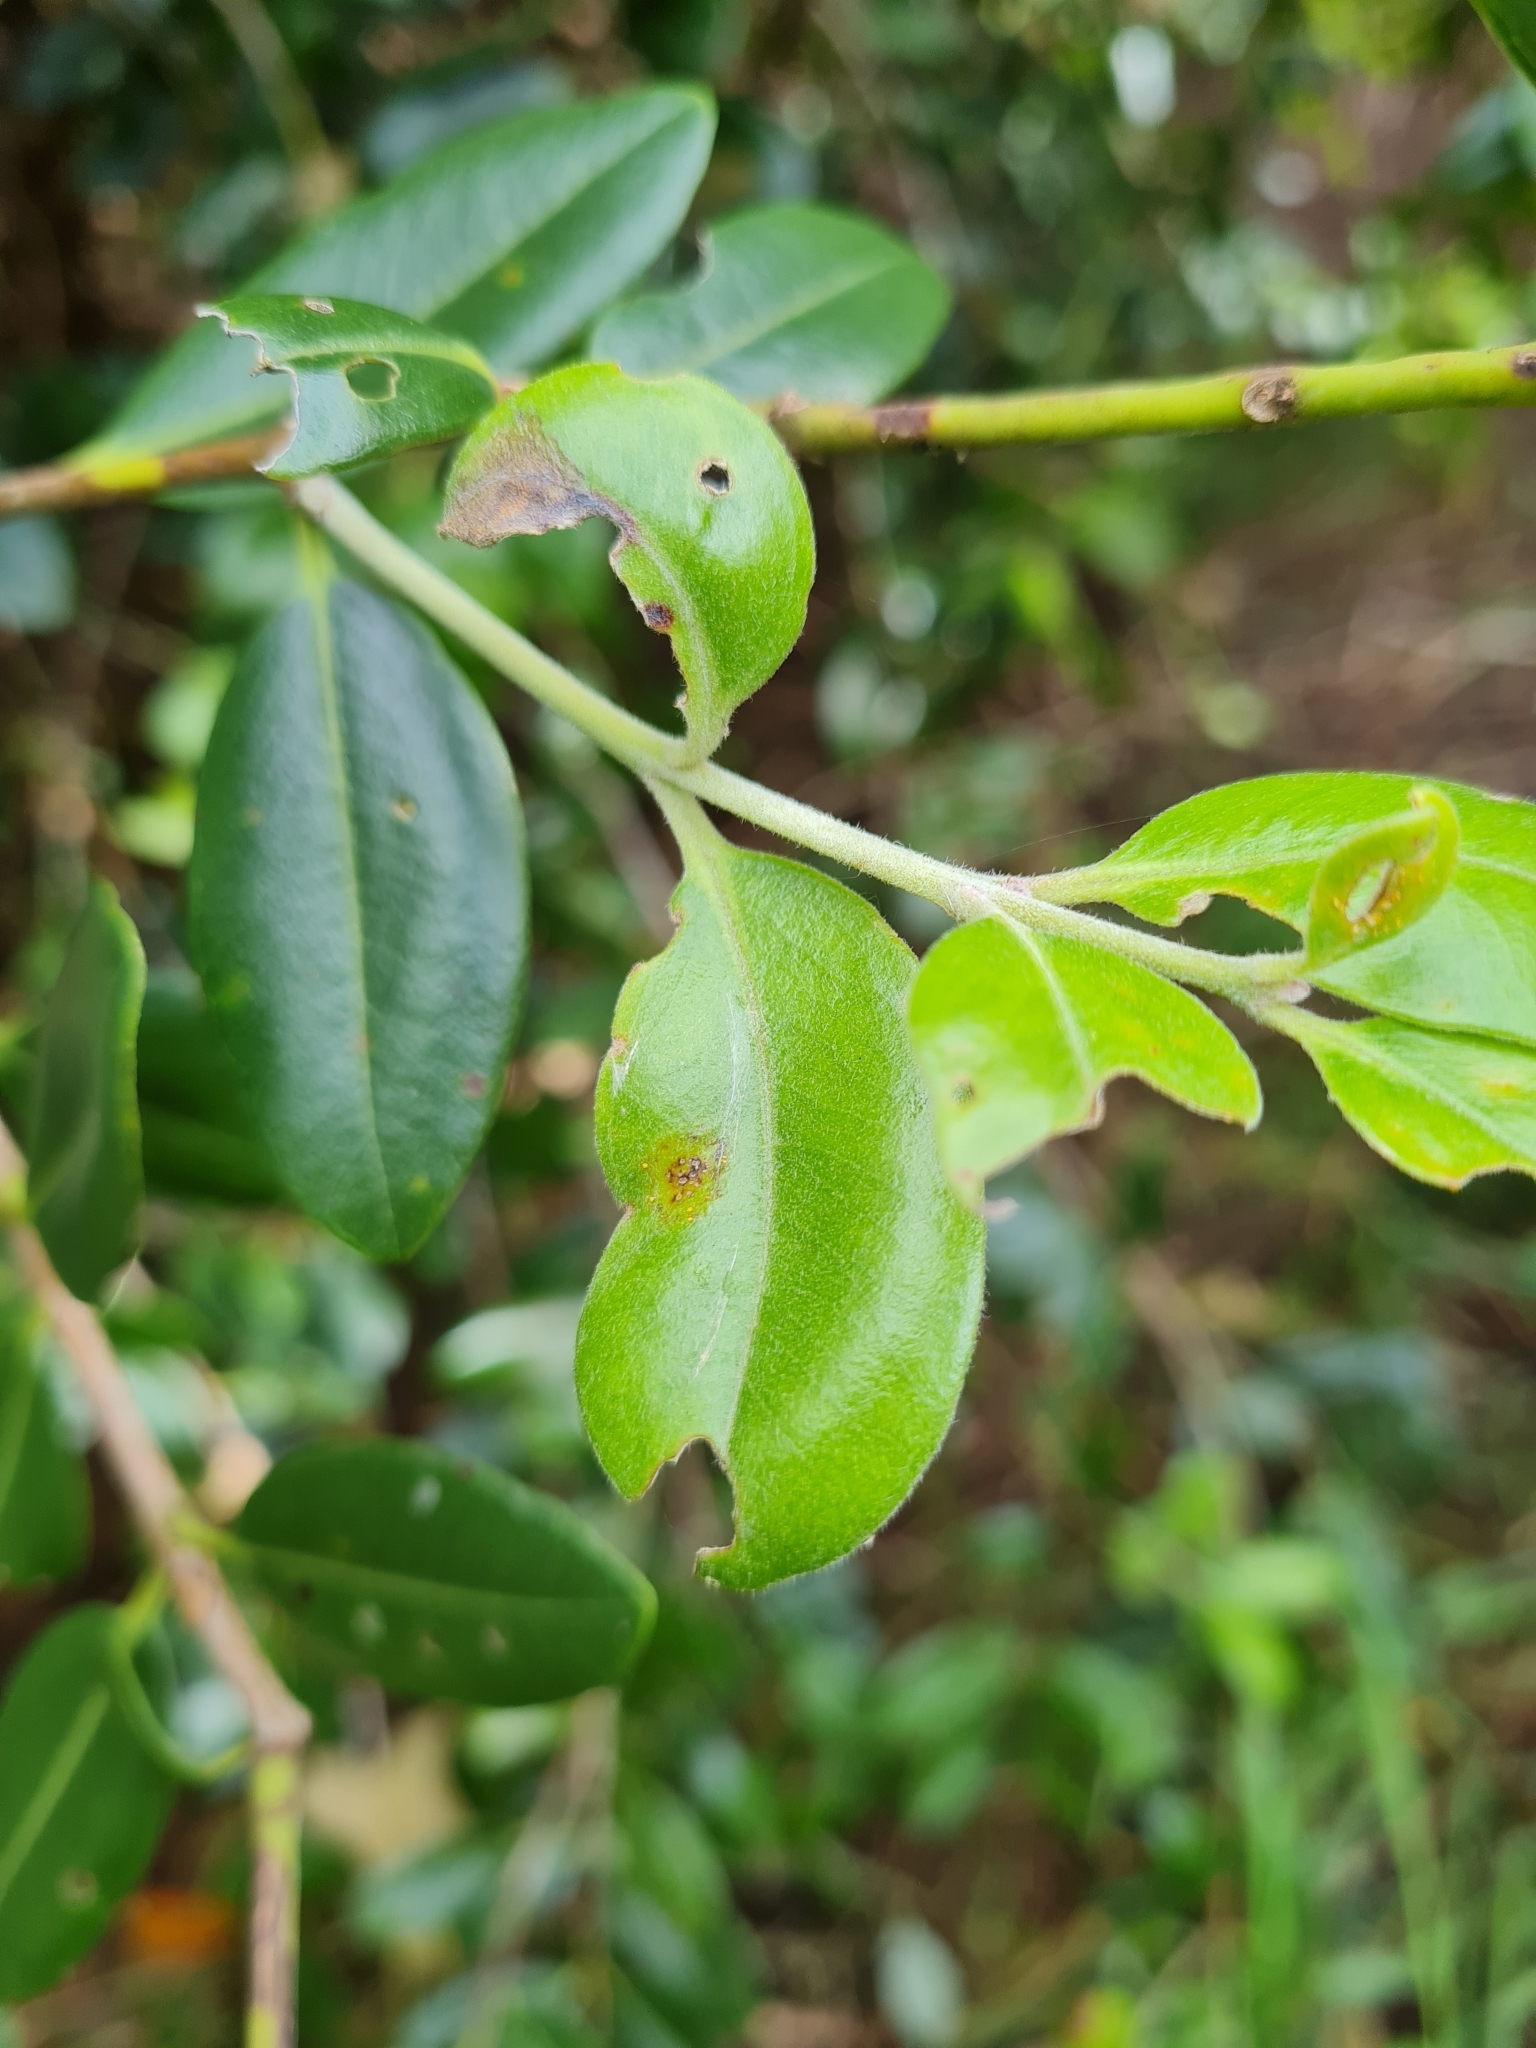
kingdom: Fungi
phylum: Basidiomycota
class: Pucciniomycetes
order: Pucciniales
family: Sphaerophragmiaceae
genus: Austropuccinia
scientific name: Austropuccinia psidii
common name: Myrtle rust
